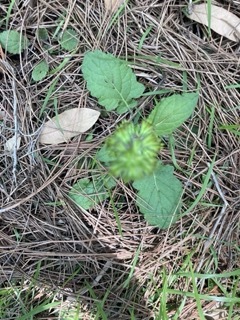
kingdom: Plantae
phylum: Tracheophyta
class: Magnoliopsida
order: Lamiales
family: Lamiaceae
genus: Salvia
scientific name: Salvia lyrata
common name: Cancerweed
